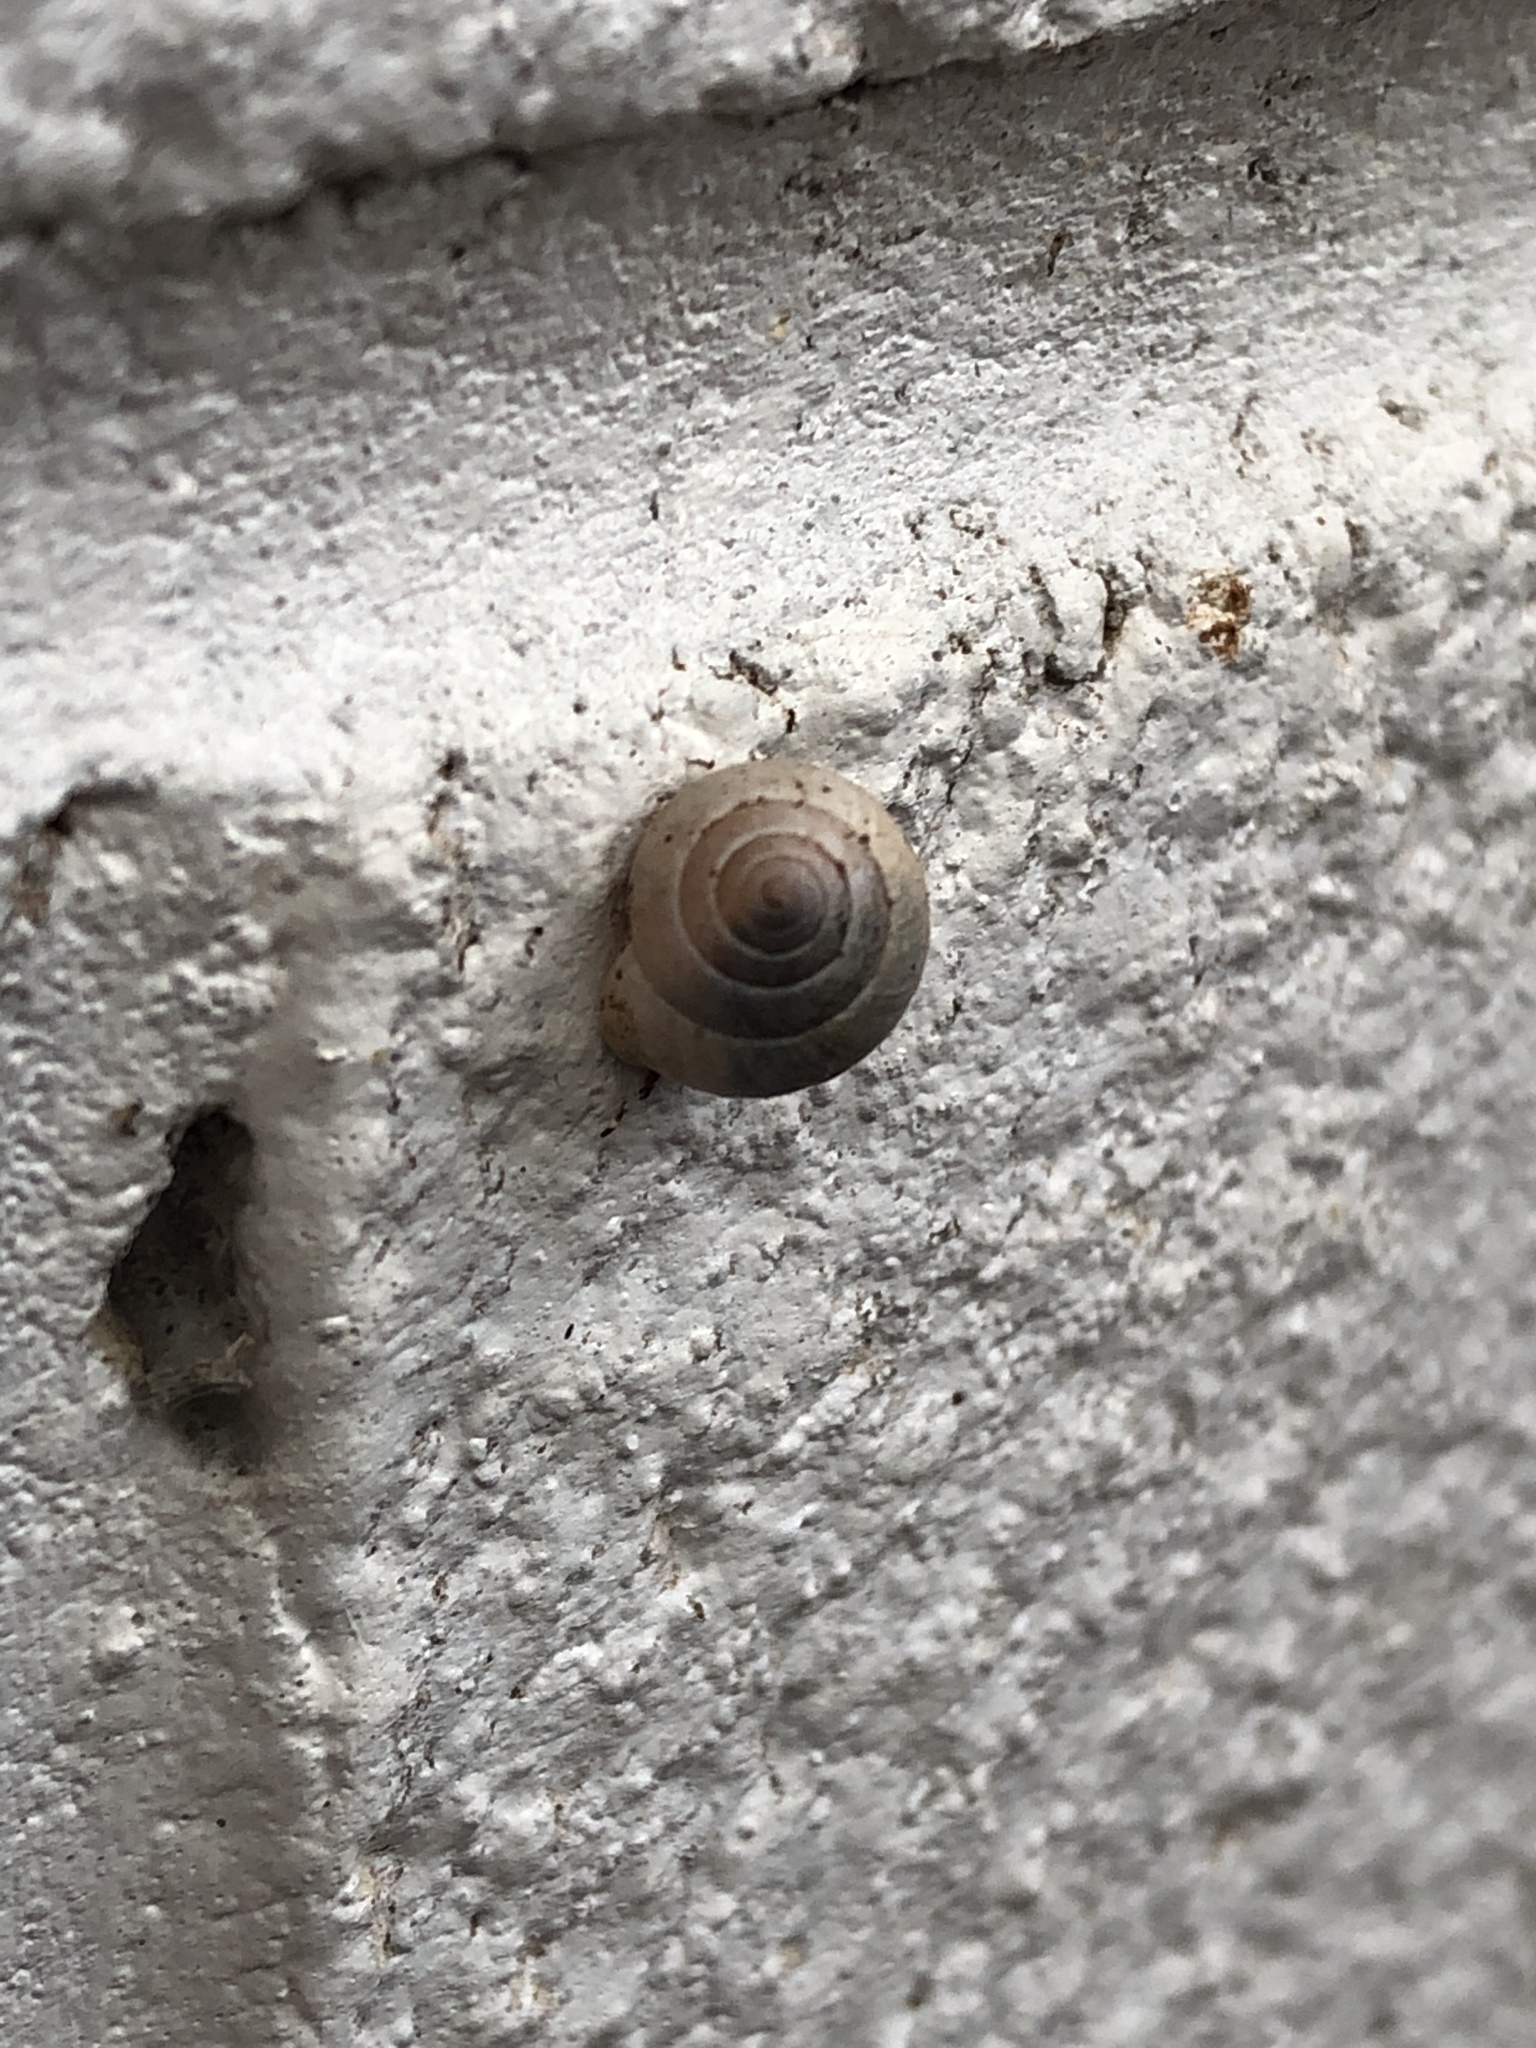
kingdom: Animalia
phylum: Mollusca
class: Gastropoda
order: Cycloneritida
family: Helicinidae
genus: Helicina
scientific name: Helicina orbiculata
